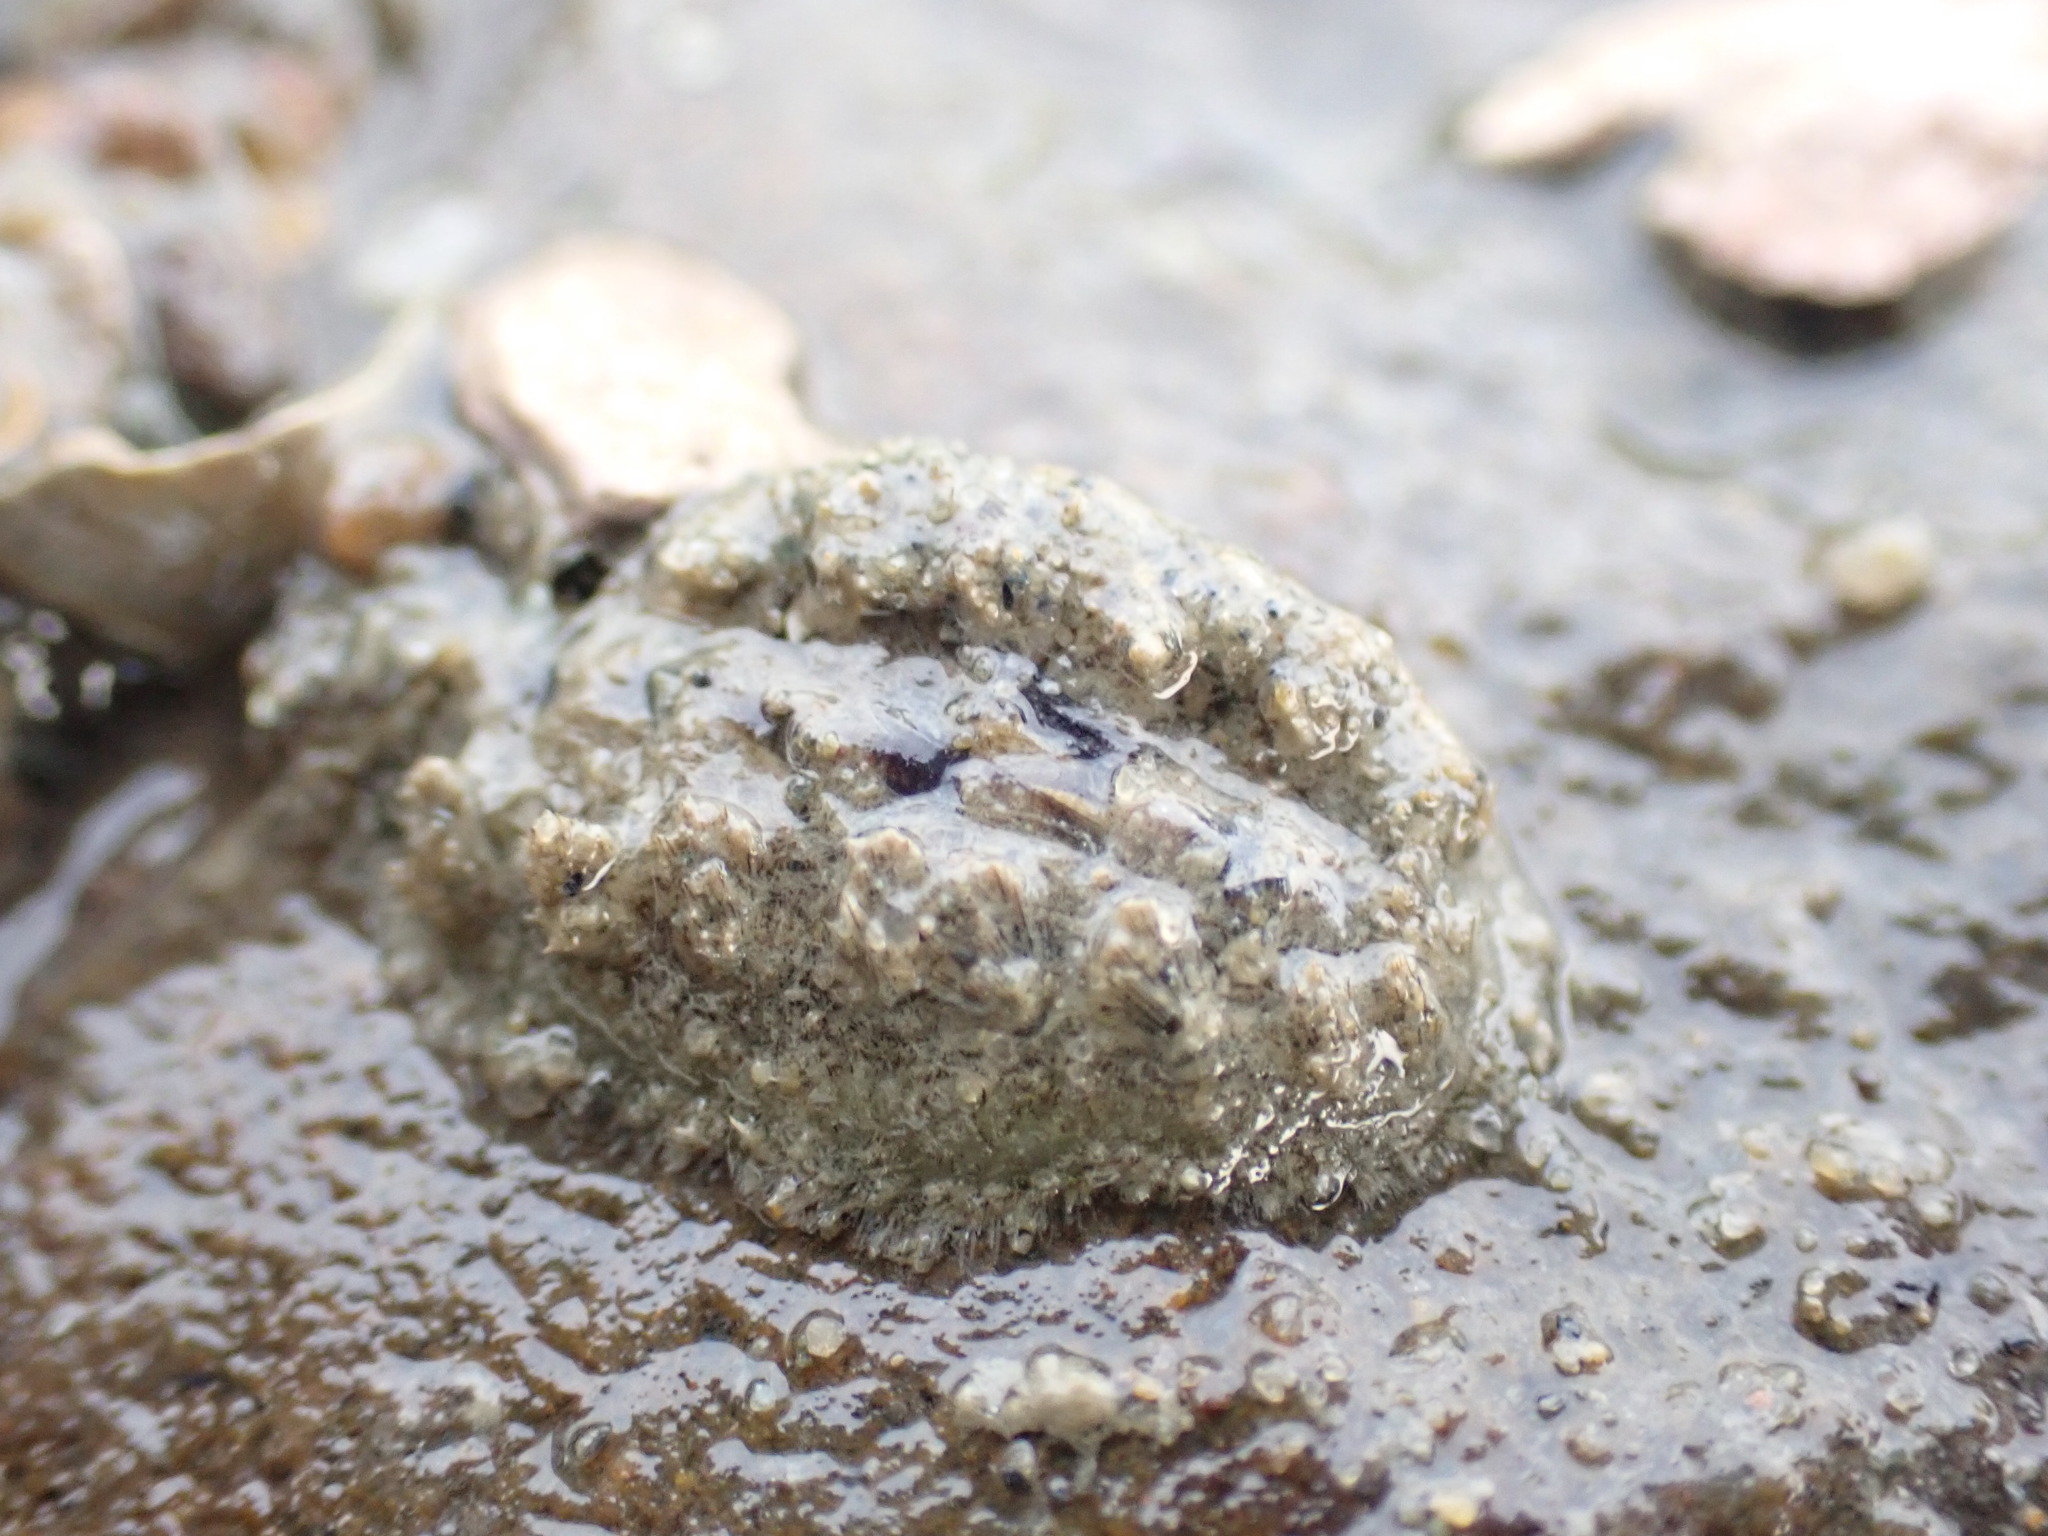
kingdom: Animalia
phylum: Mollusca
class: Polyplacophora
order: Chitonida
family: Acanthochitonidae
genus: Acanthochitona
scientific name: Acanthochitona zelandica
